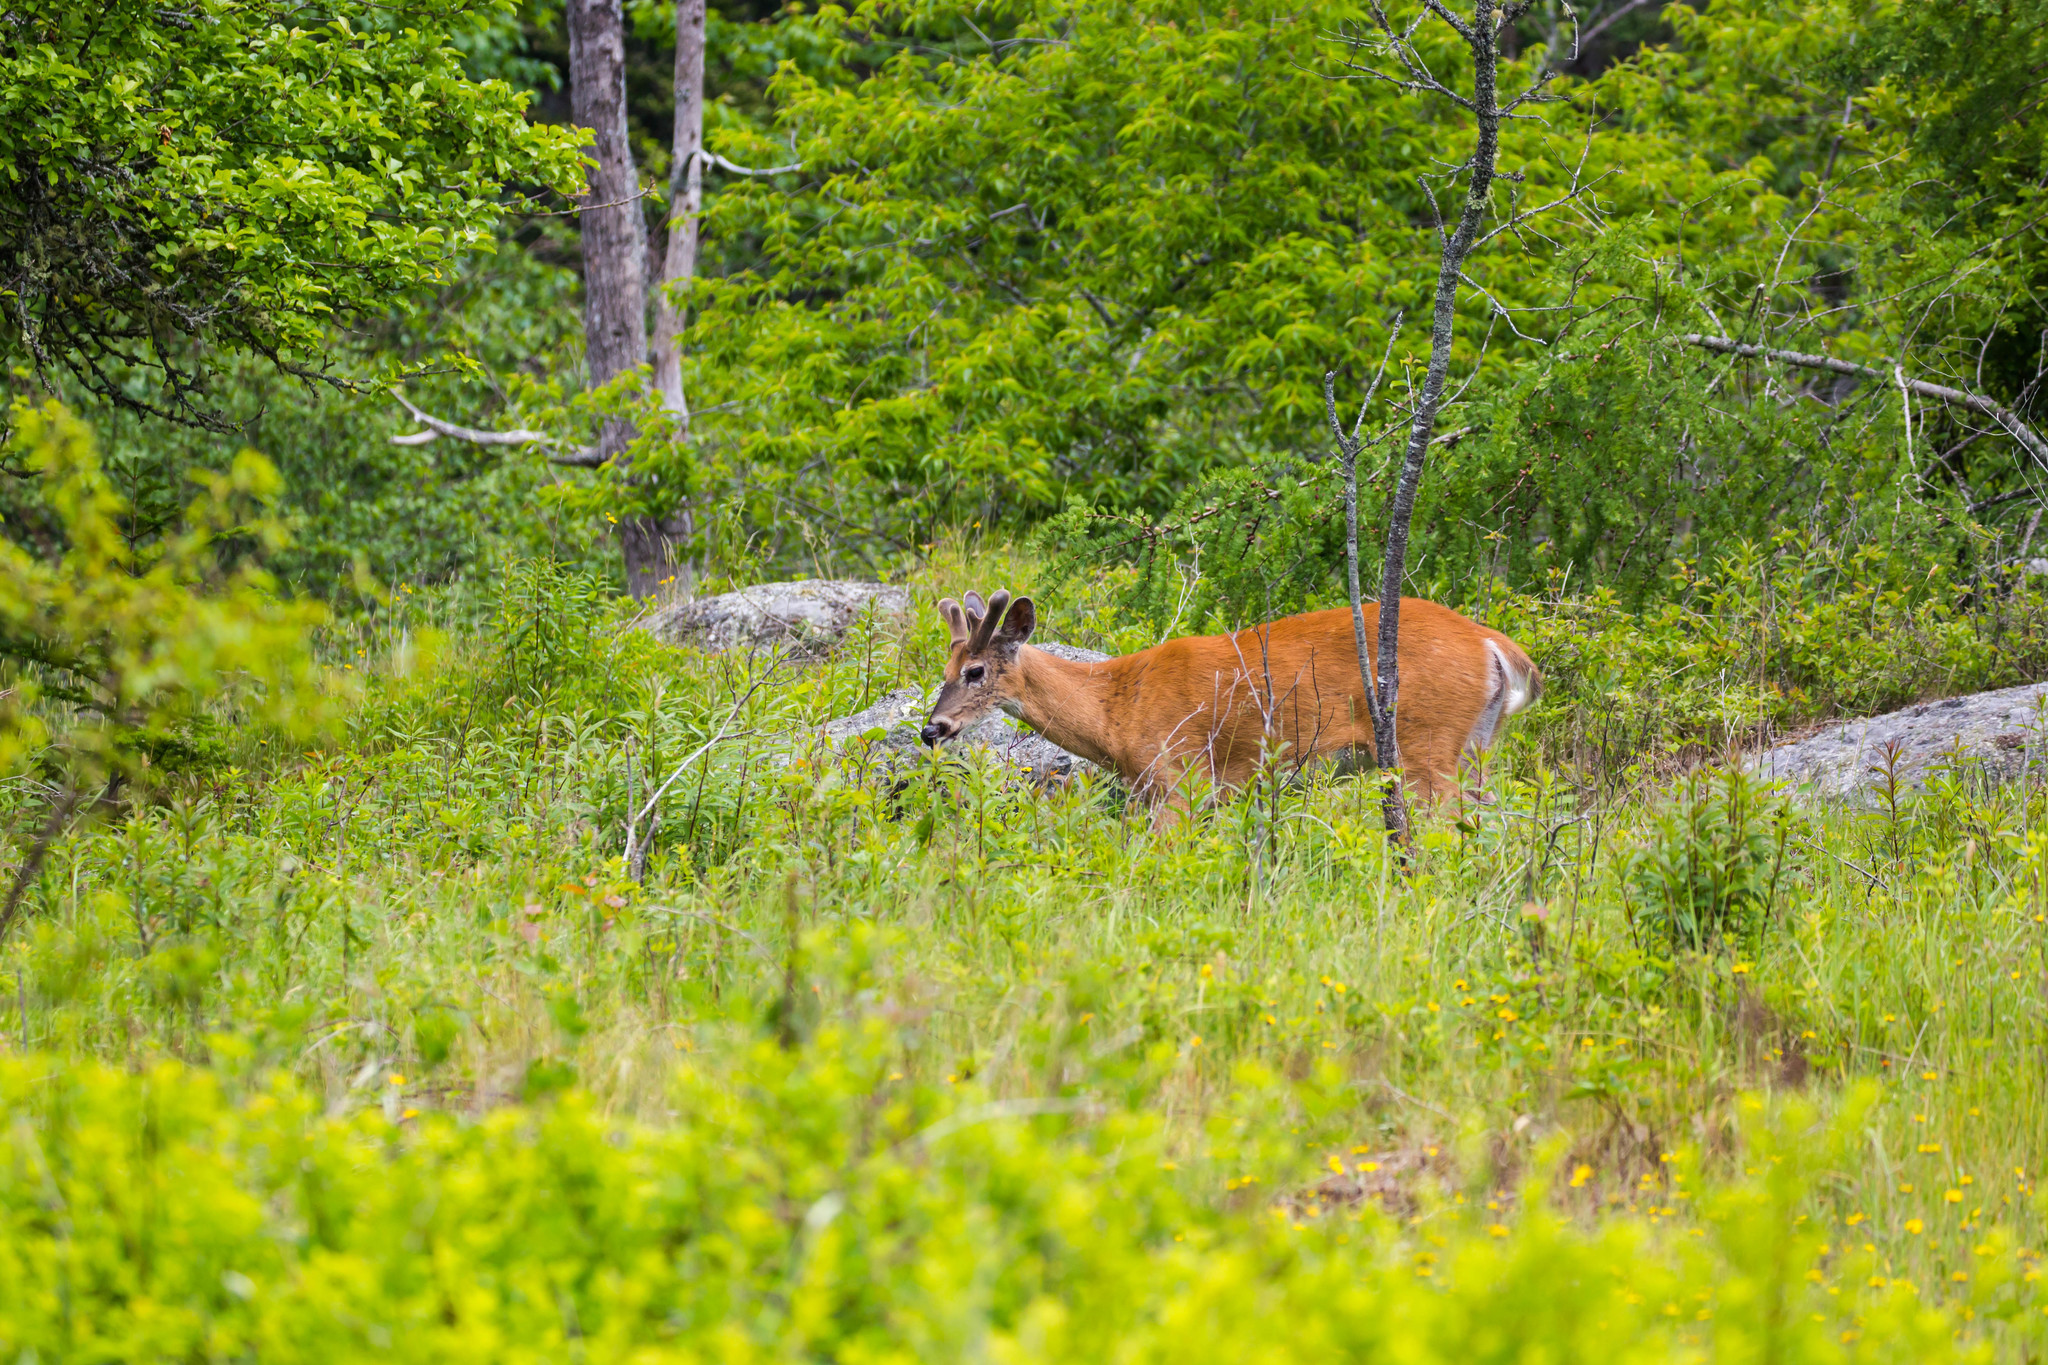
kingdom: Animalia
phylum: Chordata
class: Mammalia
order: Artiodactyla
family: Cervidae
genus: Odocoileus
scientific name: Odocoileus virginianus
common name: White-tailed deer
